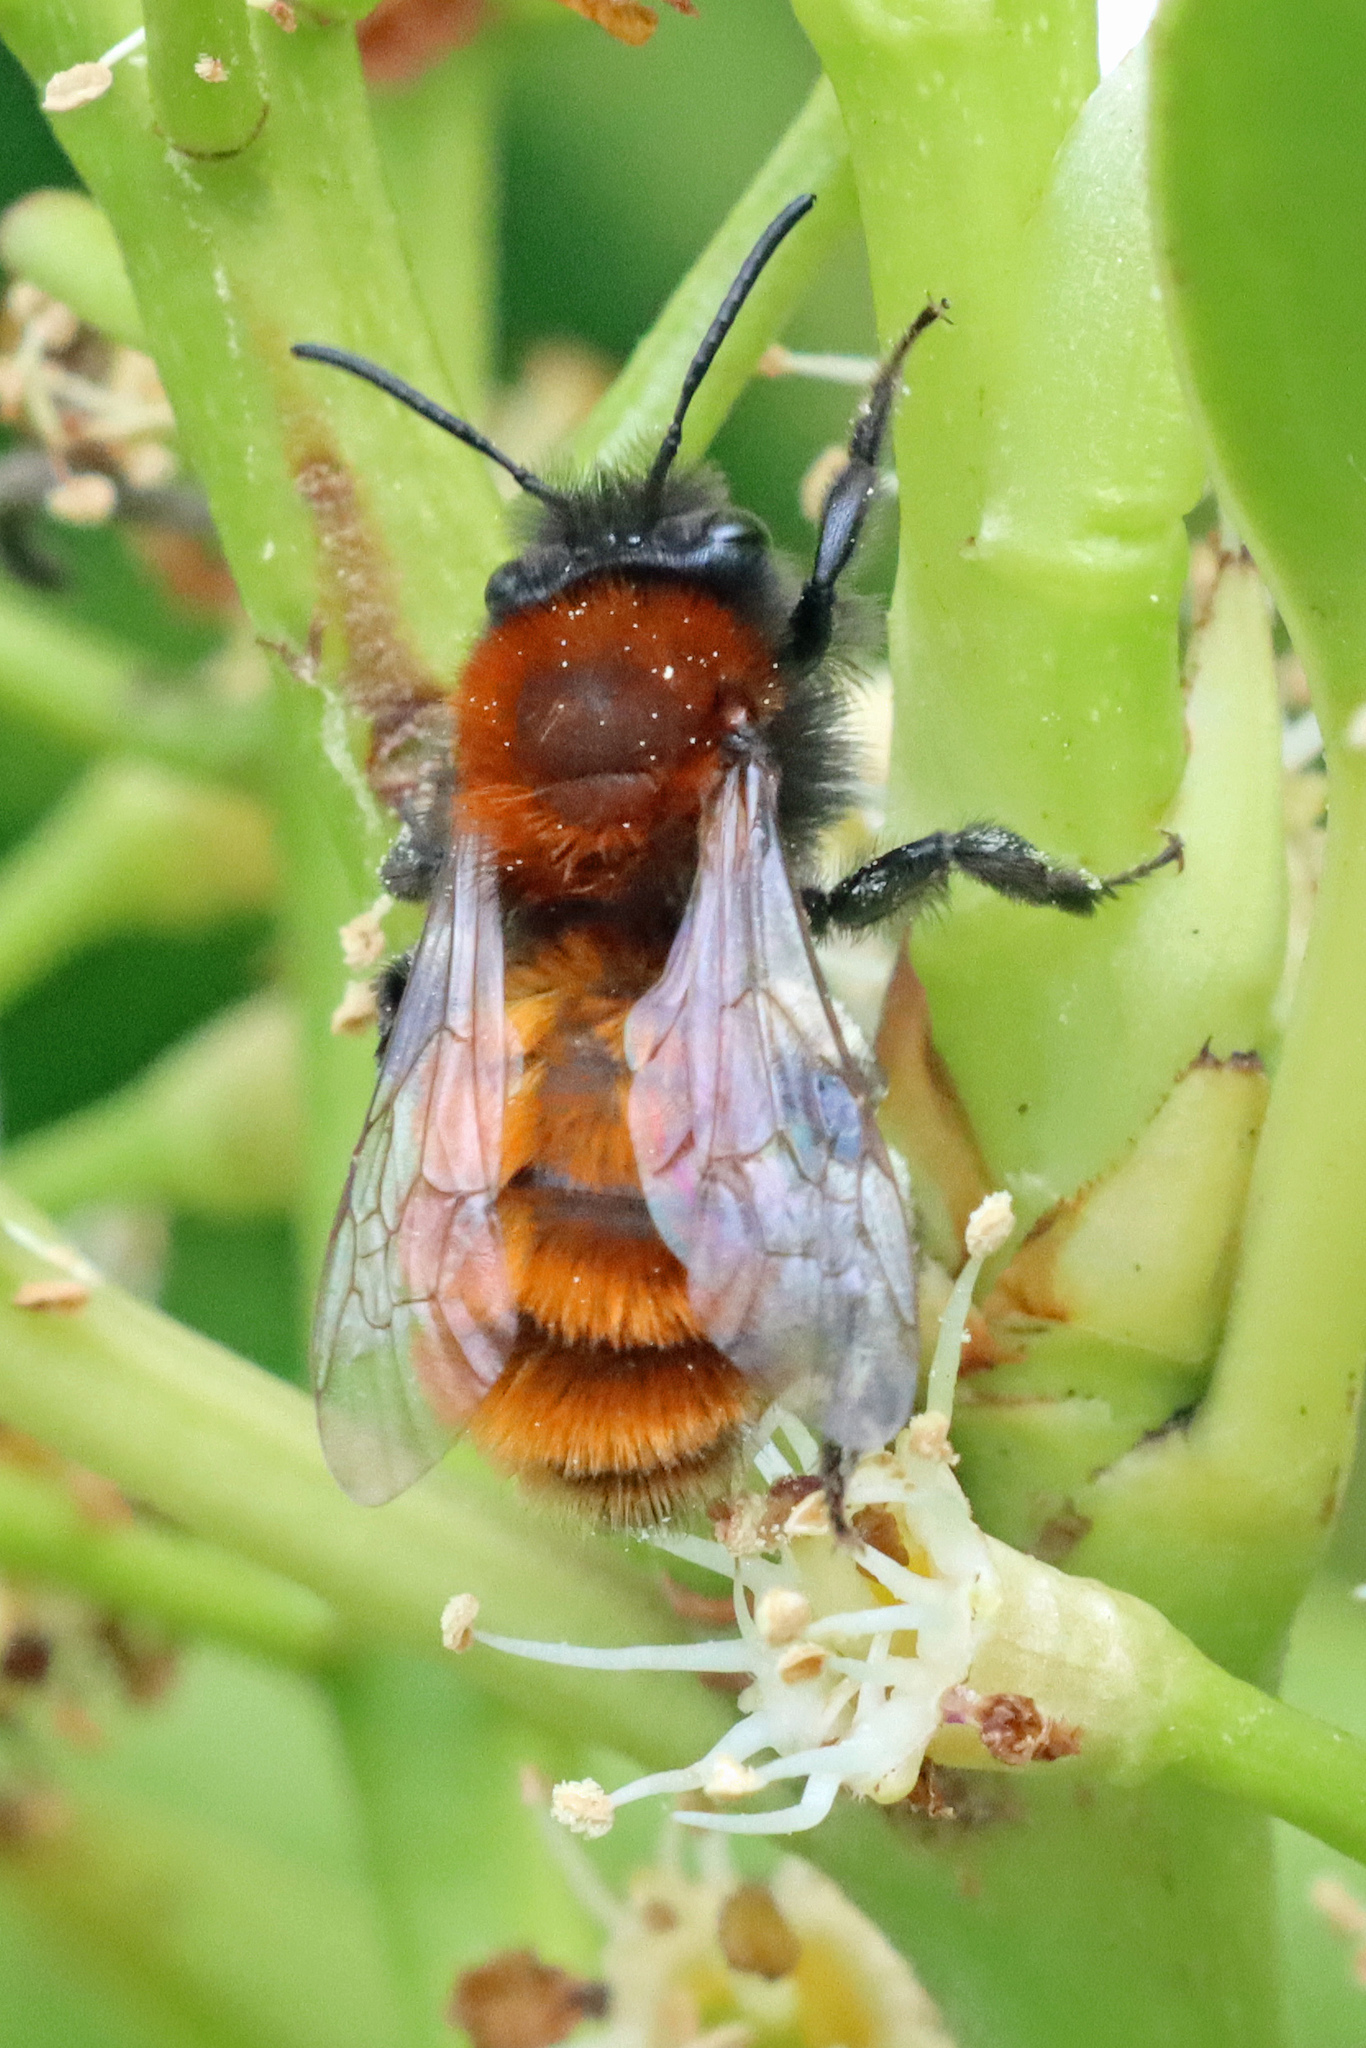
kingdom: Animalia
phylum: Arthropoda
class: Insecta
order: Hymenoptera
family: Andrenidae
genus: Andrena
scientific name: Andrena fulva
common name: Tawny mining bee
